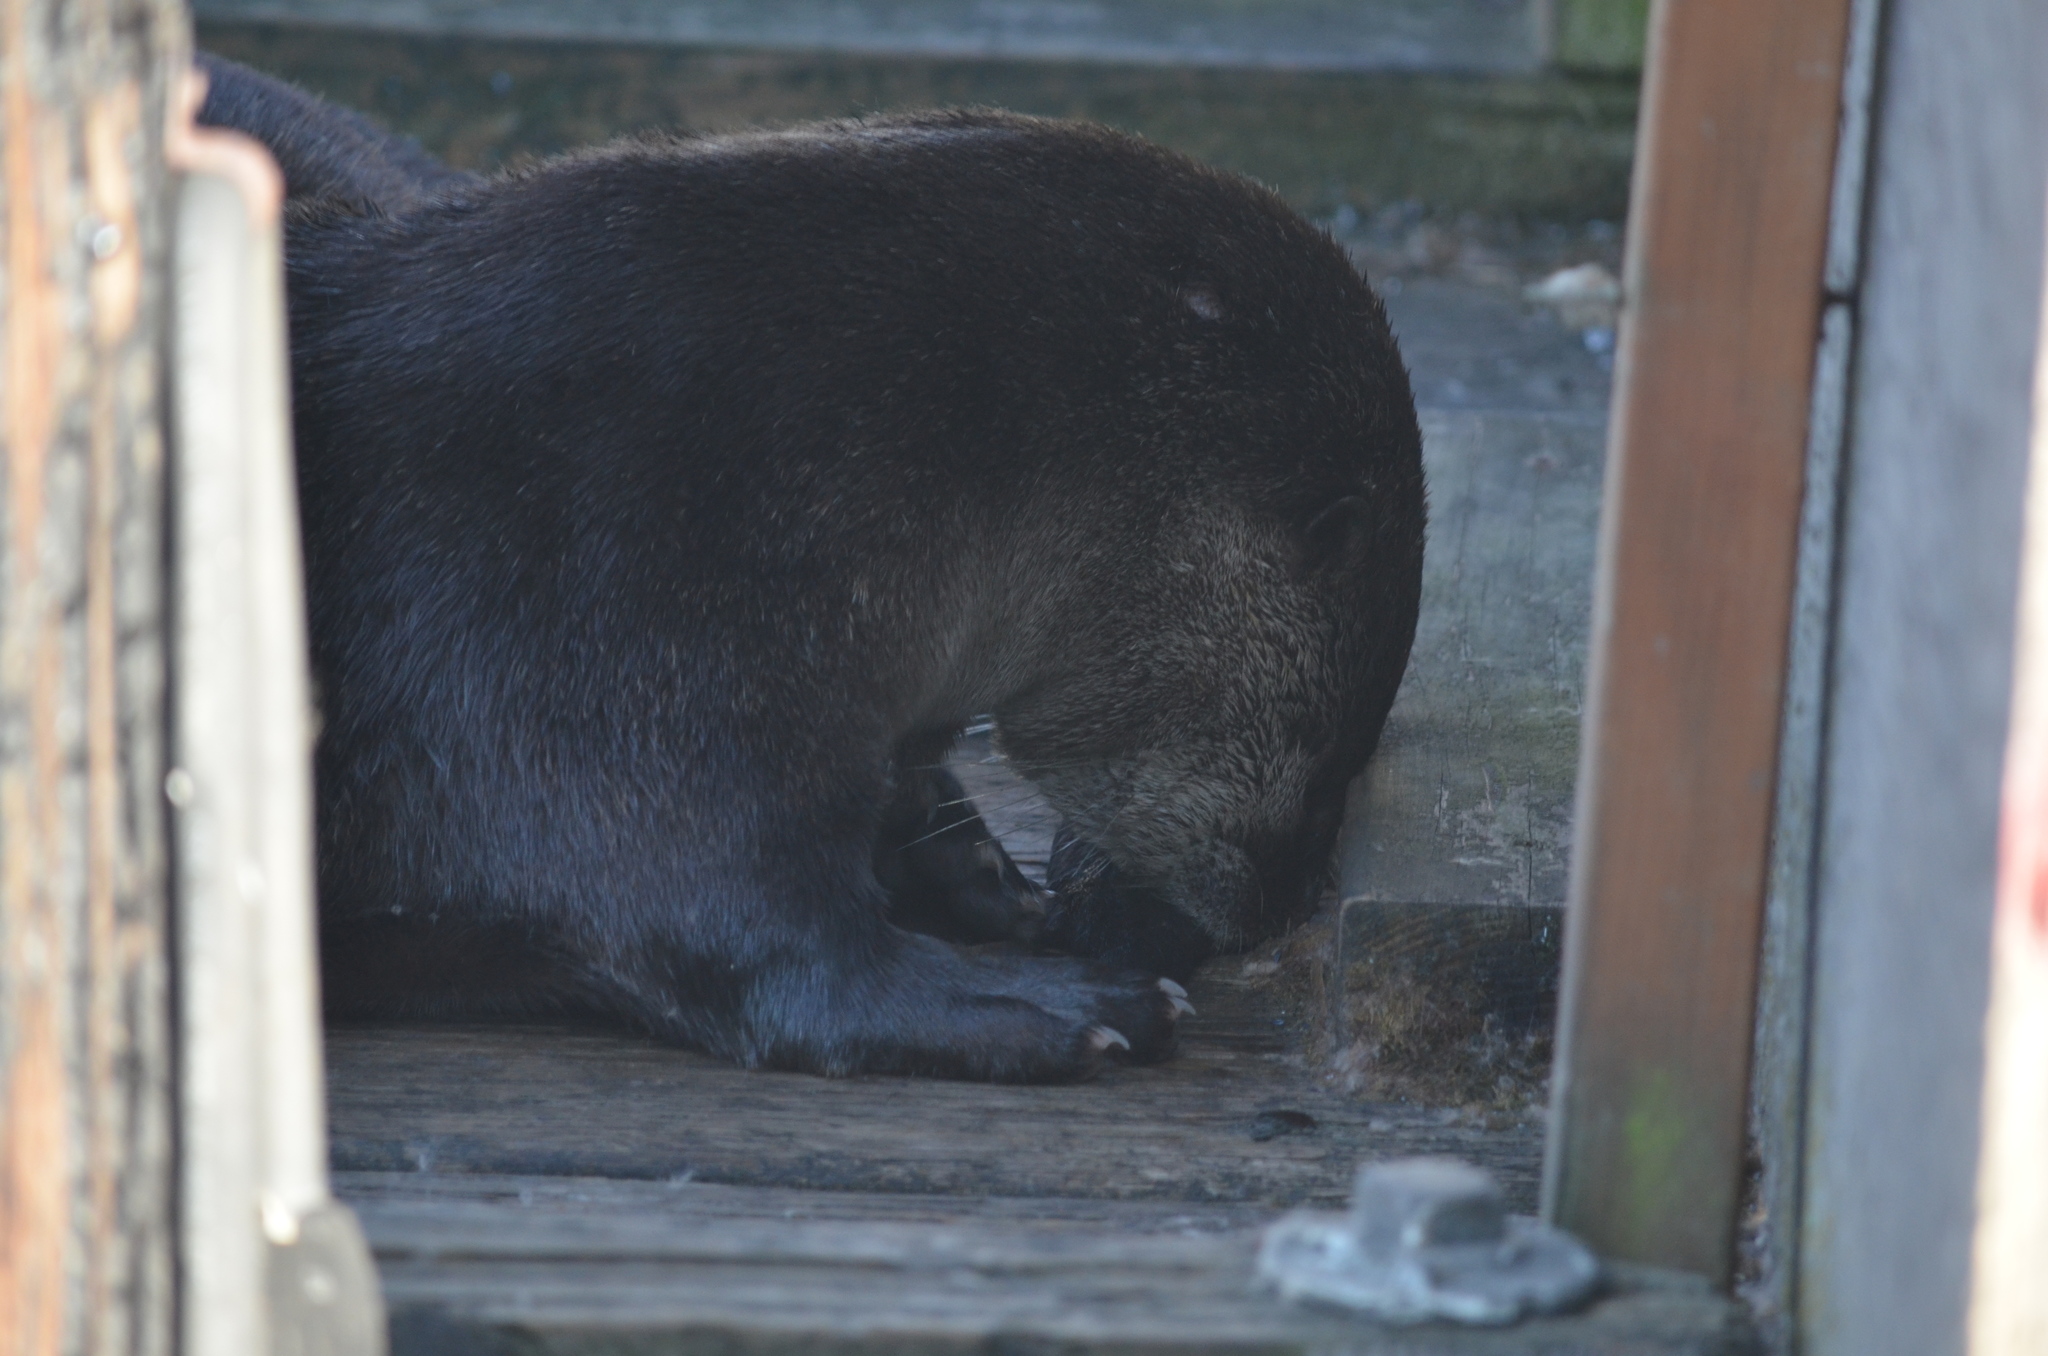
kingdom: Animalia
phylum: Chordata
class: Mammalia
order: Carnivora
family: Mustelidae
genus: Lontra
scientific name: Lontra canadensis
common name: North american river otter
